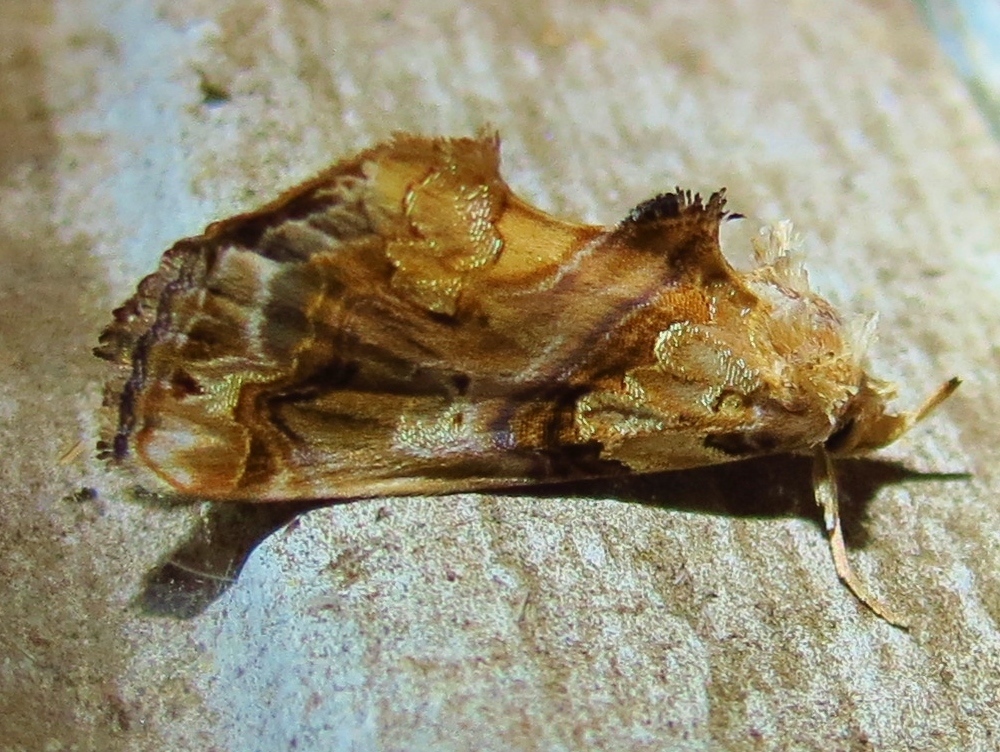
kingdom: Animalia
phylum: Arthropoda
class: Insecta
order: Lepidoptera
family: Erebidae
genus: Plusiodonta
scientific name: Plusiodonta compressipalpis
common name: Moonseed moth
